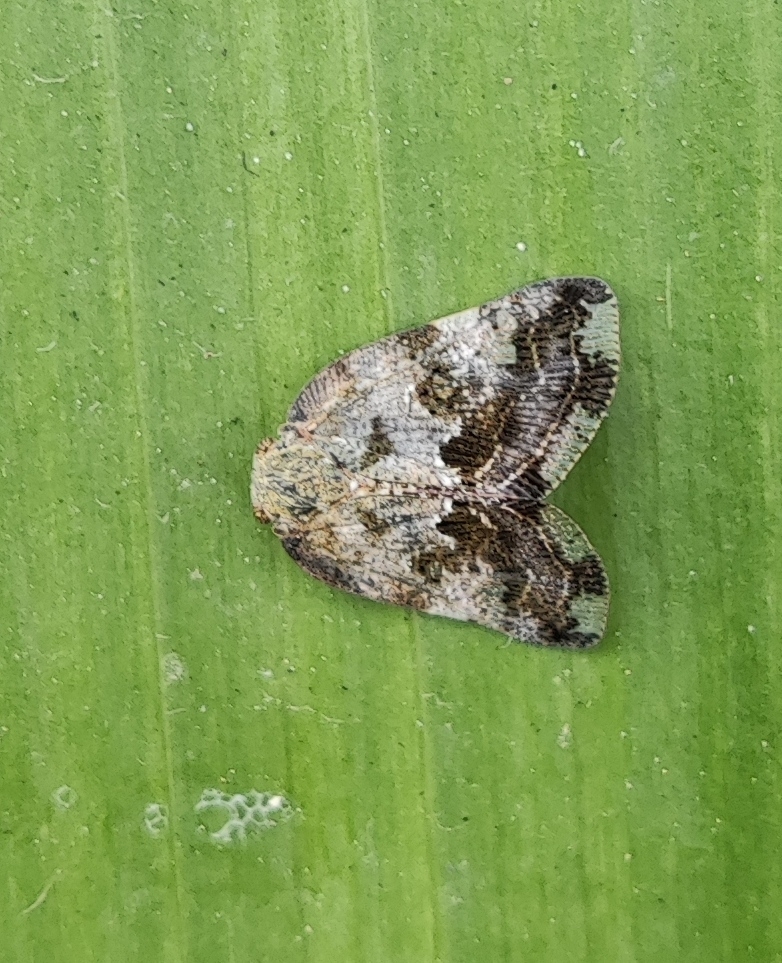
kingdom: Animalia
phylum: Arthropoda
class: Insecta
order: Hemiptera
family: Ricaniidae
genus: Ricania
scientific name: Ricania speculum
